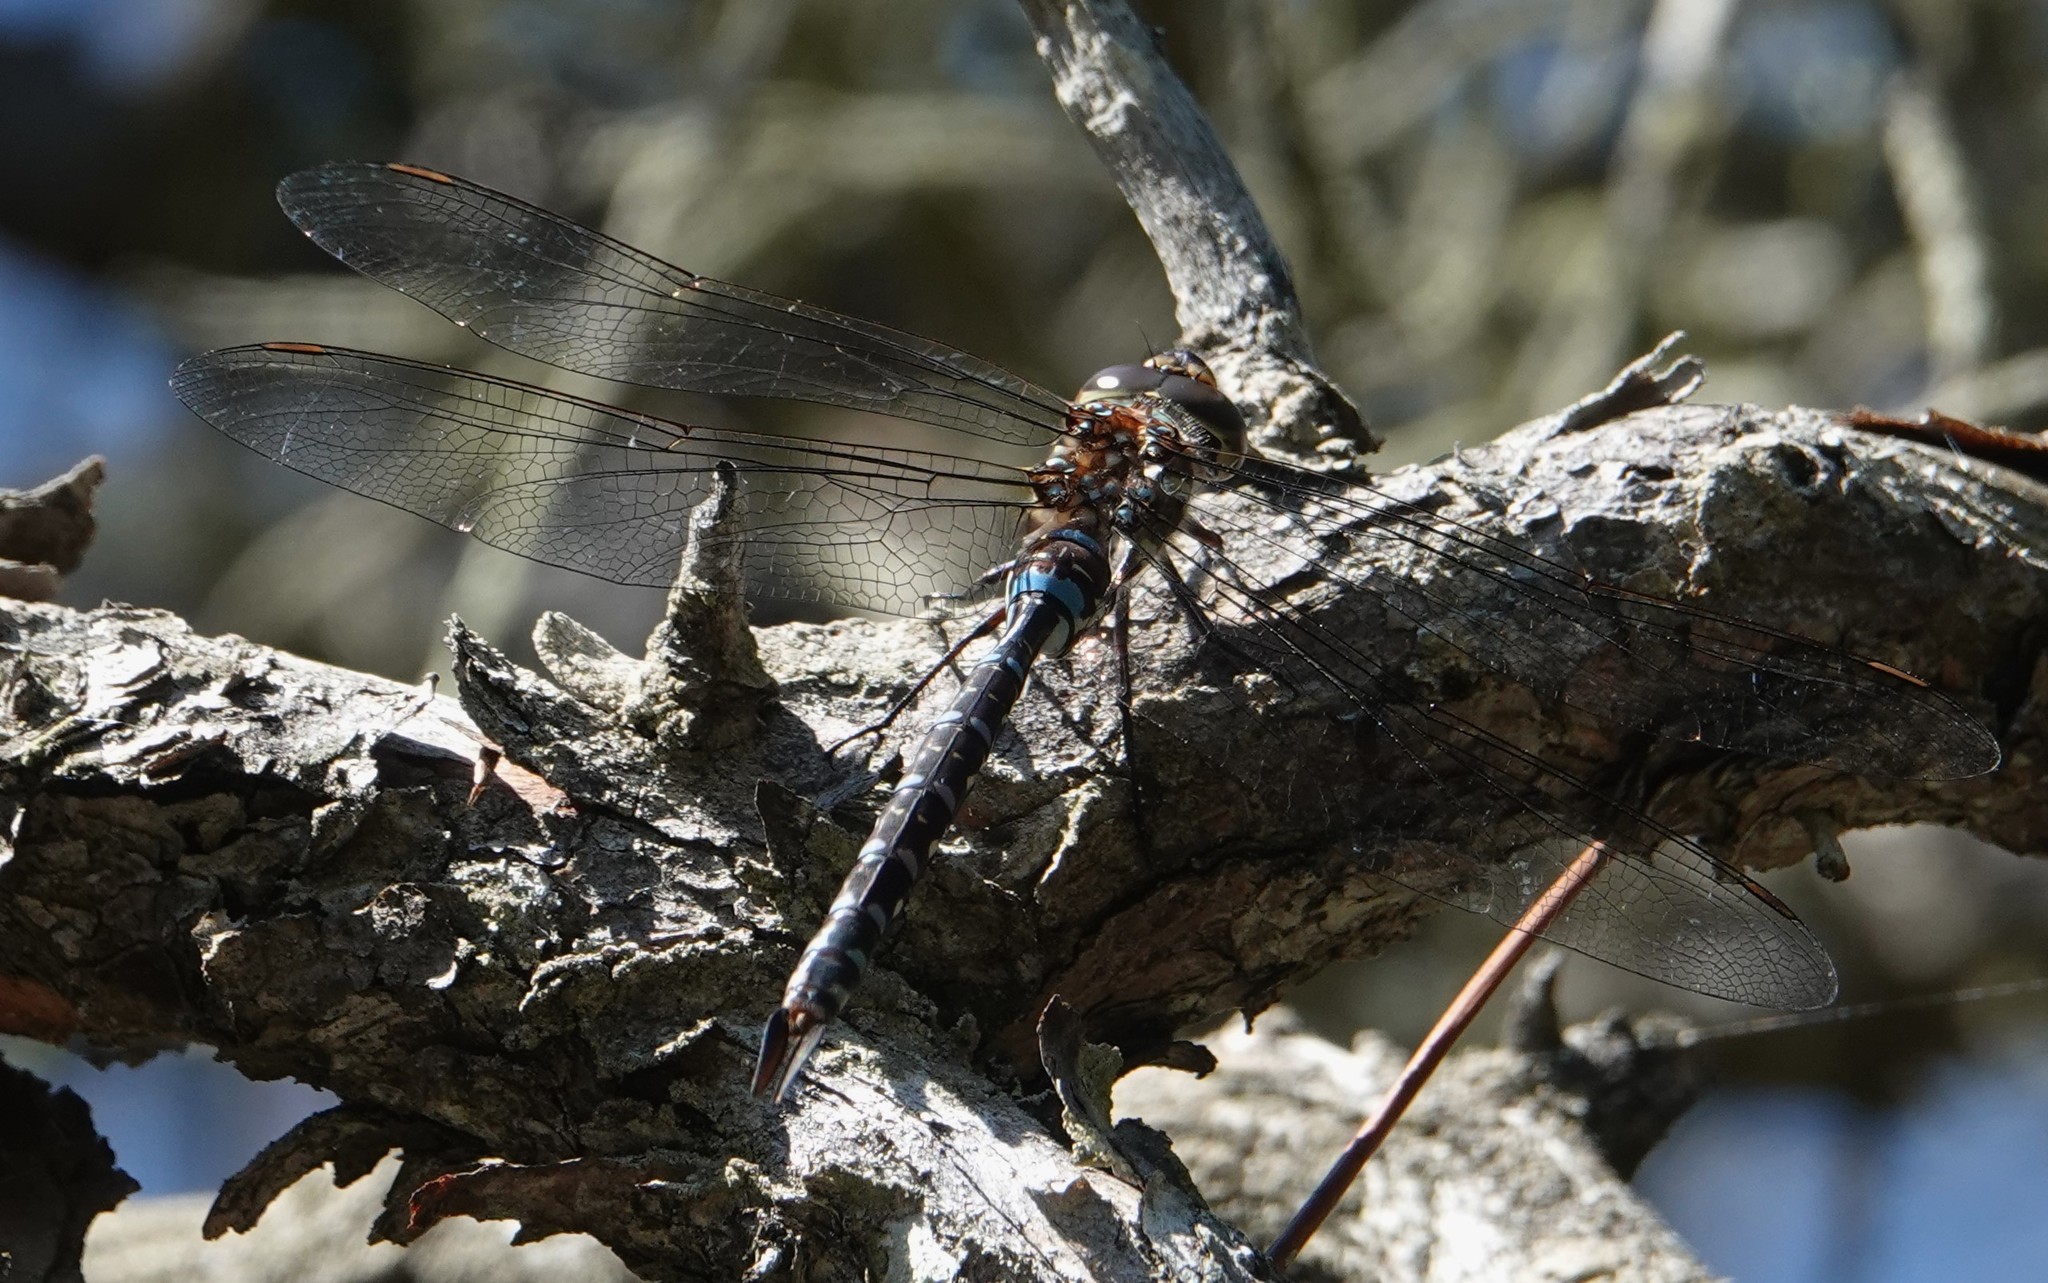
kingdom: Animalia
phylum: Arthropoda
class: Insecta
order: Odonata
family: Aeshnidae
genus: Aeshna
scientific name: Aeshna tuberculifera
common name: Aeschne à tubercules
